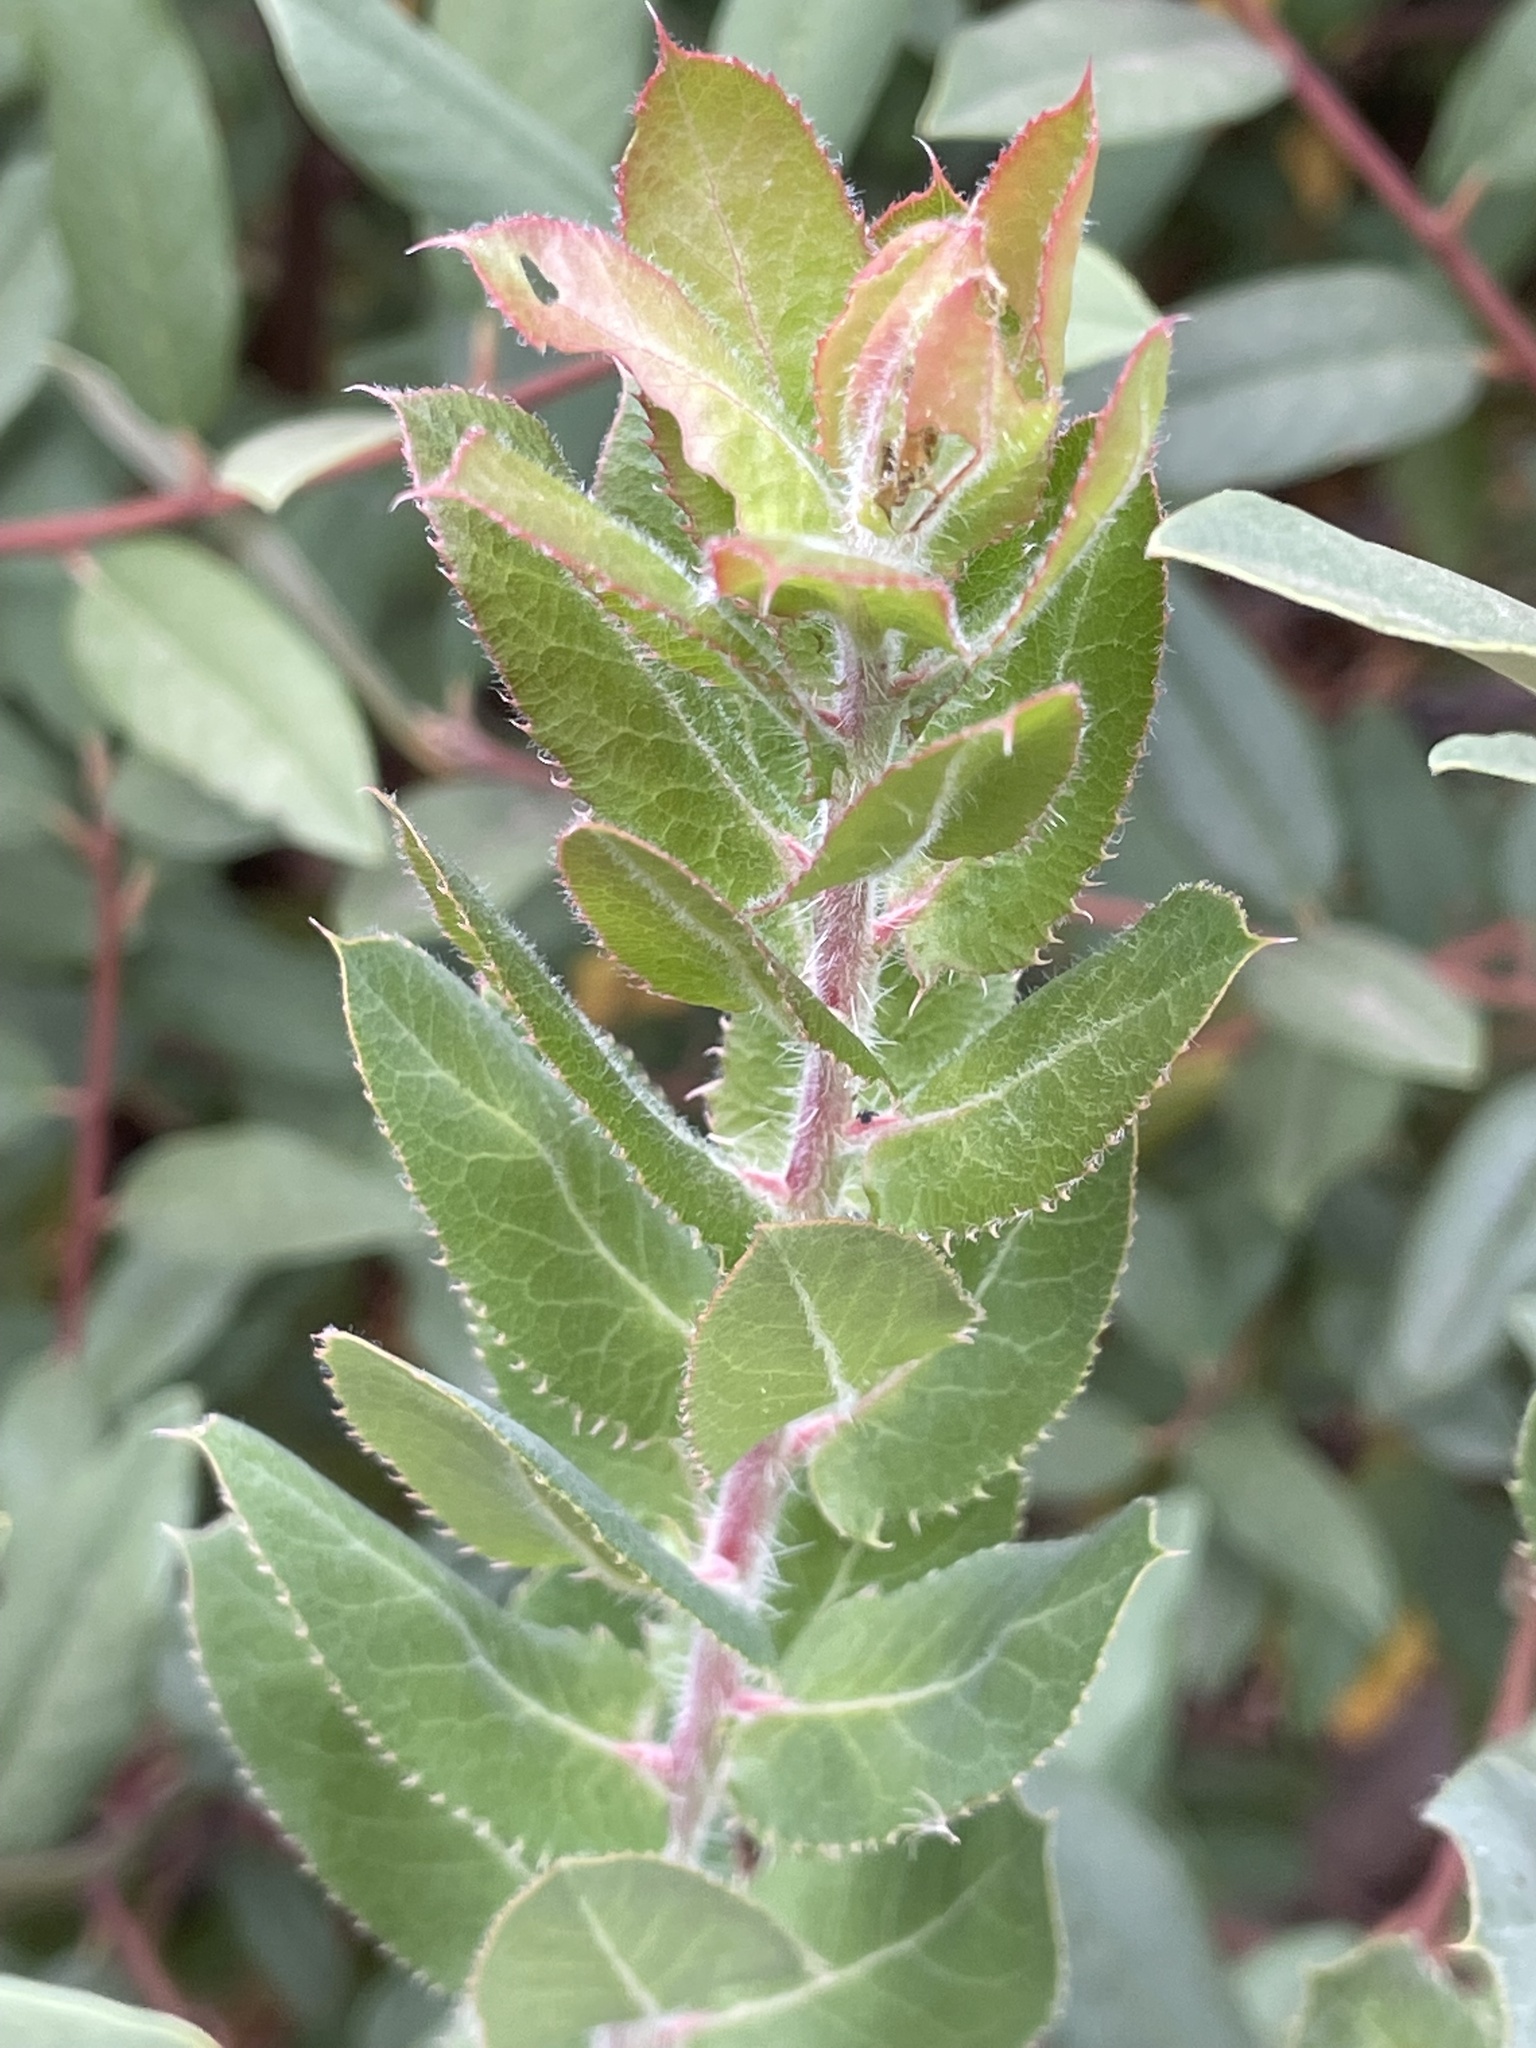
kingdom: Plantae
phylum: Tracheophyta
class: Magnoliopsida
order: Ericales
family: Ericaceae
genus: Arctostaphylos
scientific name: Arctostaphylos crustacea
